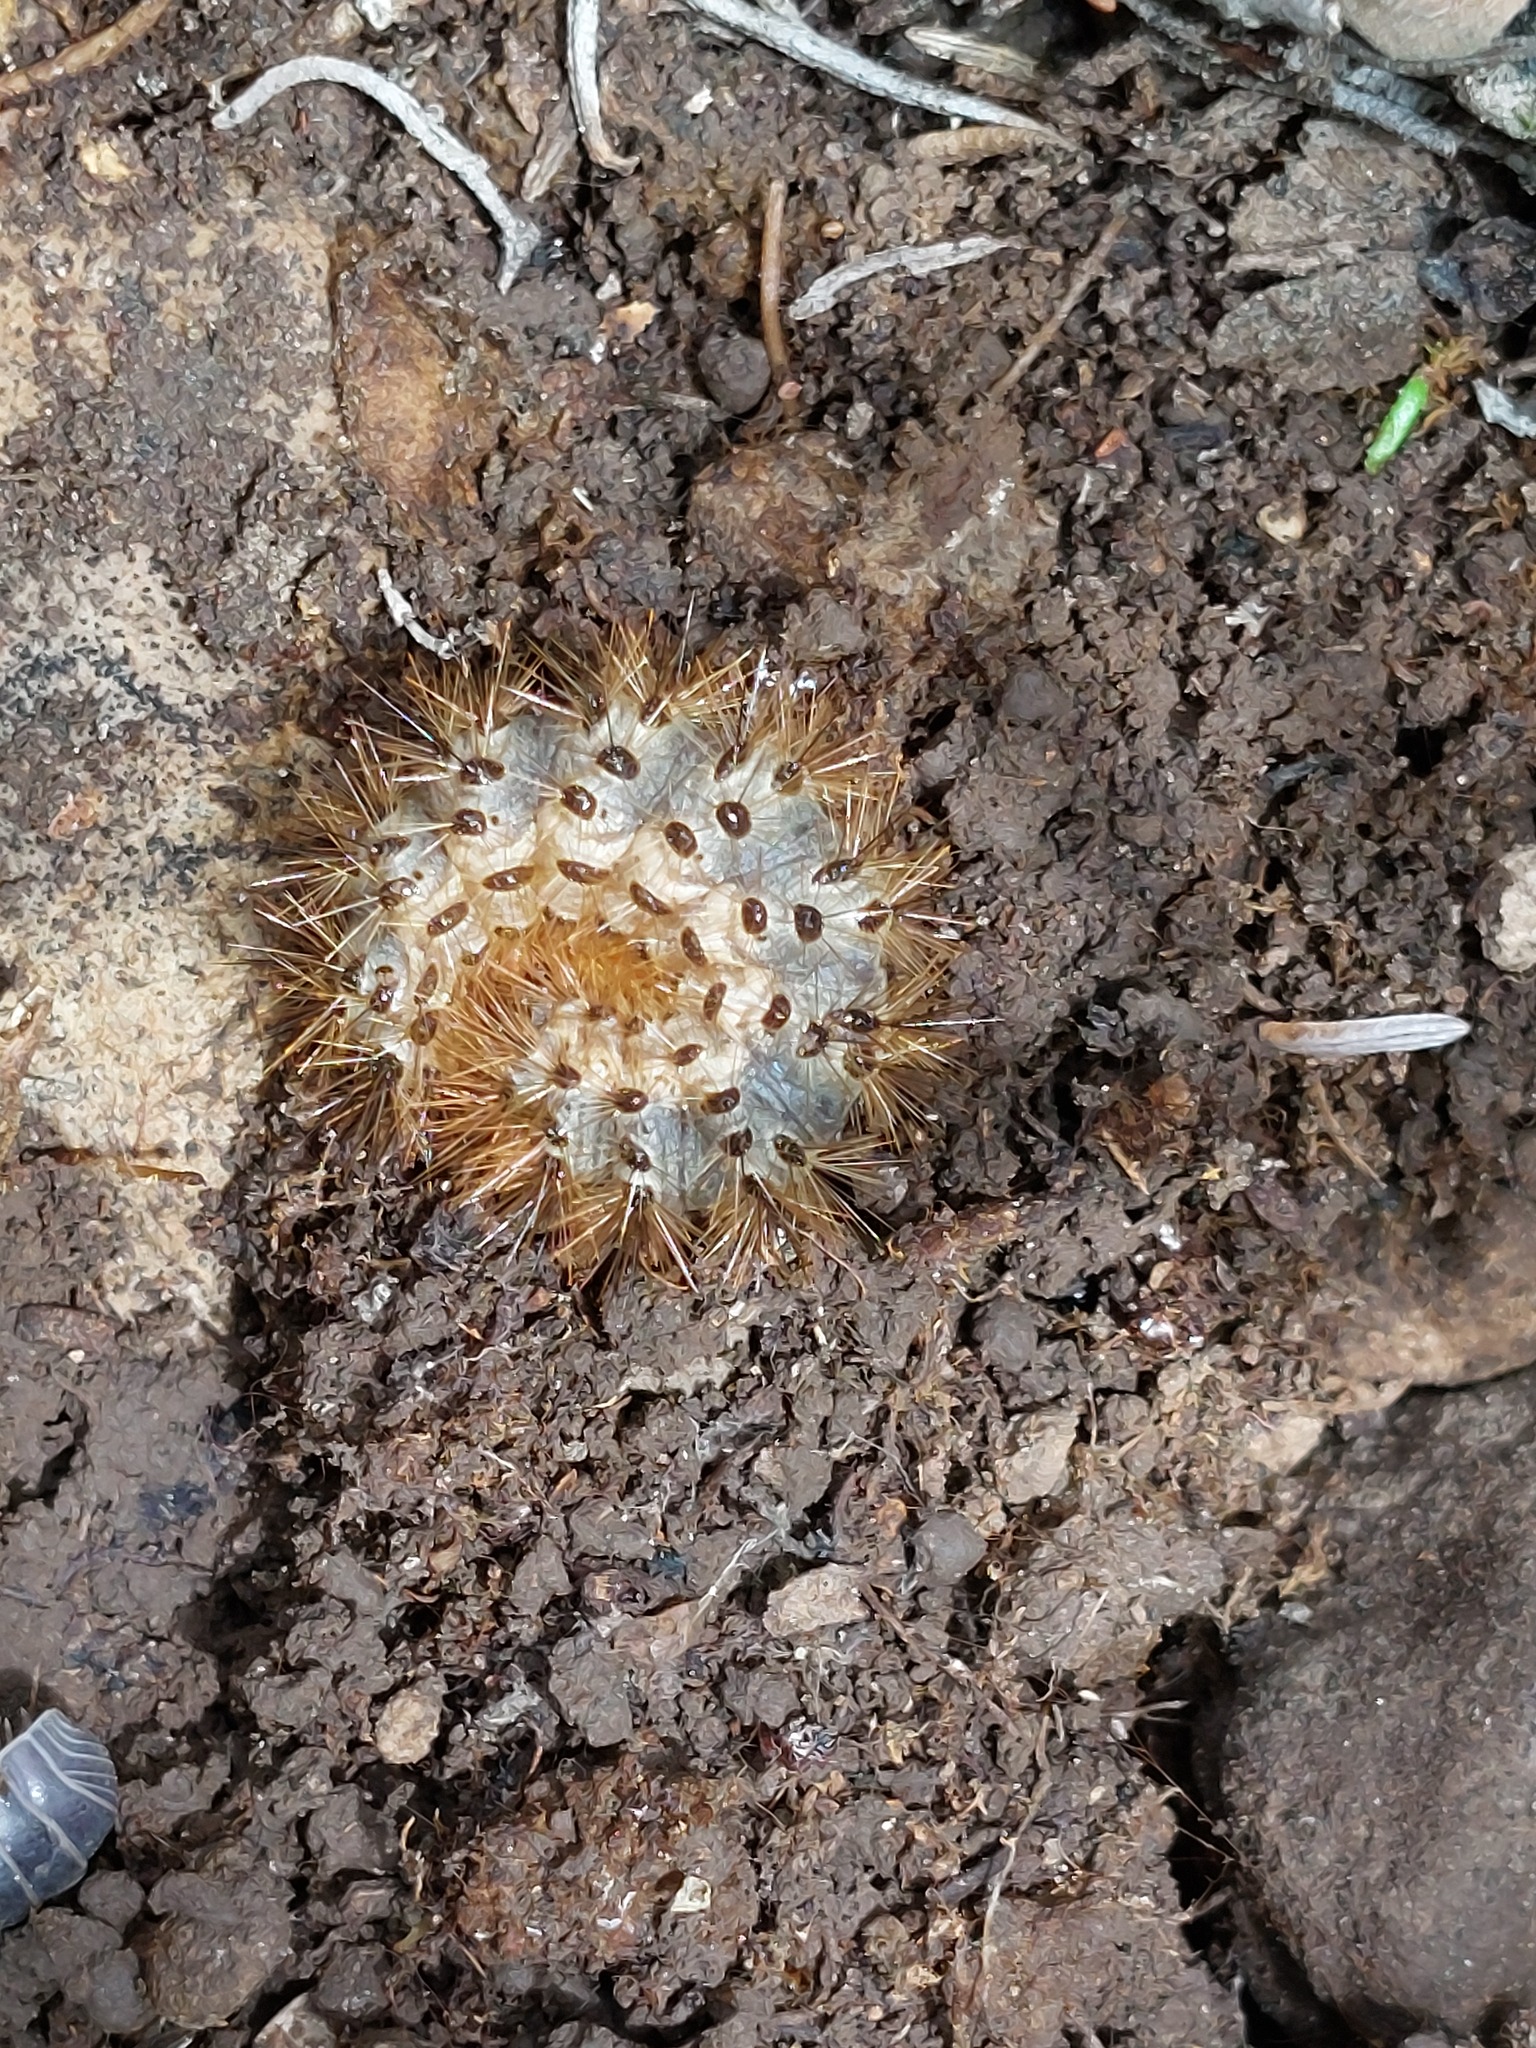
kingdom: Animalia
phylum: Arthropoda
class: Insecta
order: Lepidoptera
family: Erebidae
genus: Cymbalophora
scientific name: Cymbalophora pudica
